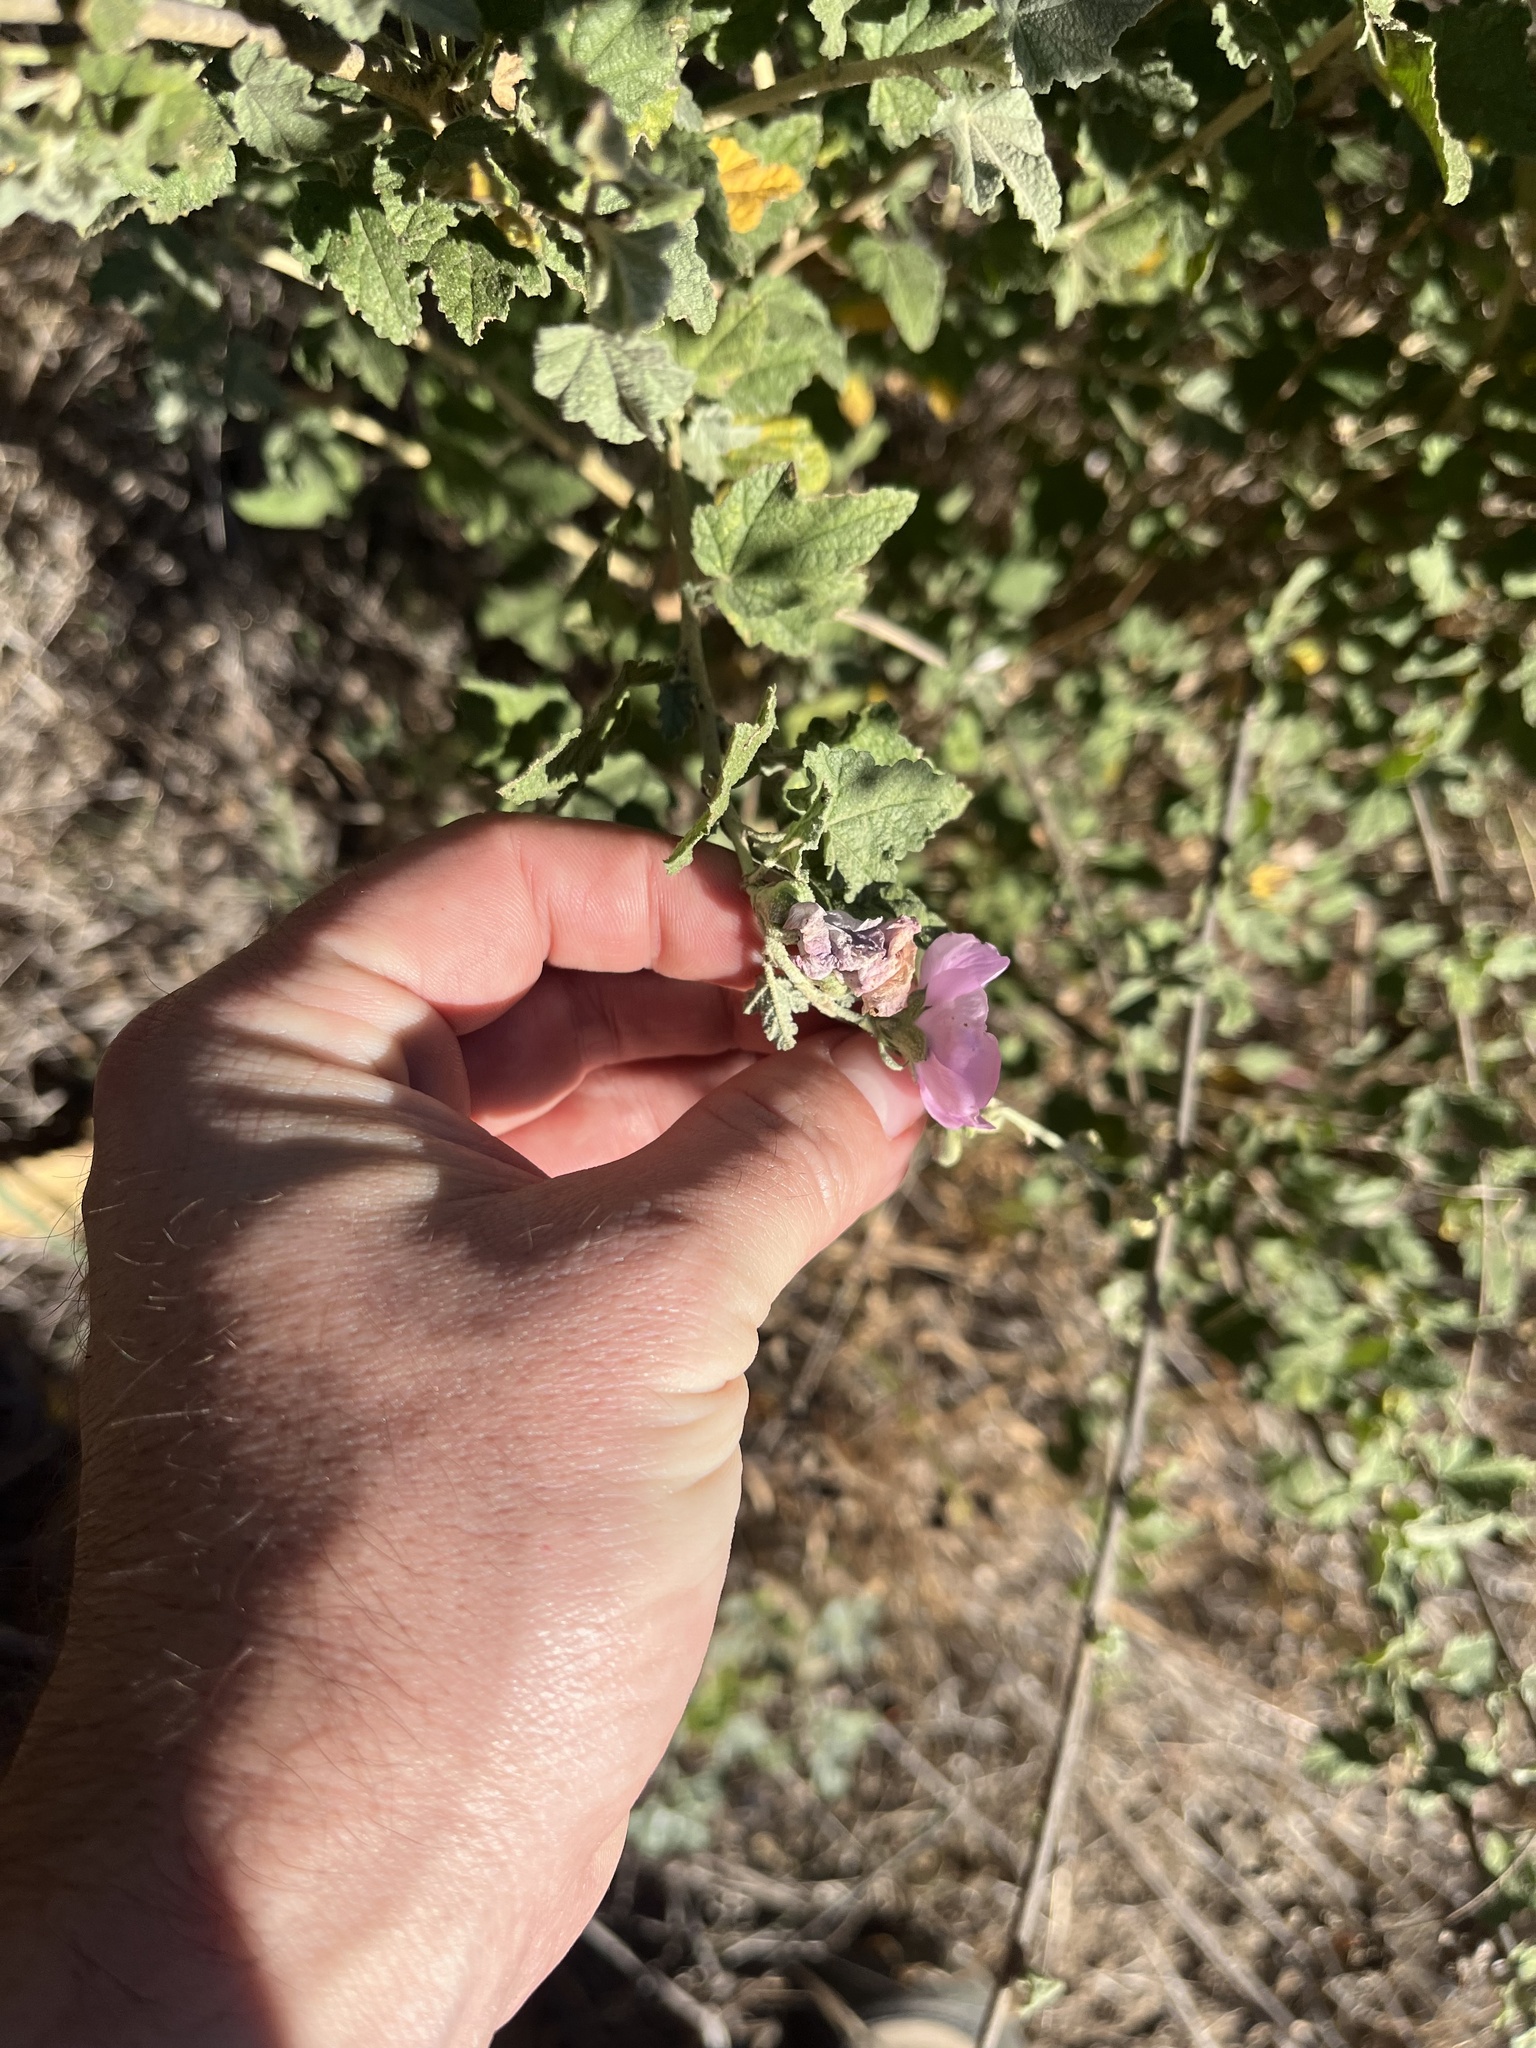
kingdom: Plantae
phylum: Tracheophyta
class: Magnoliopsida
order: Malvales
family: Malvaceae
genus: Malacothamnus
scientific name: Malacothamnus fasciculatus
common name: Sant cruz island bush-mallow
